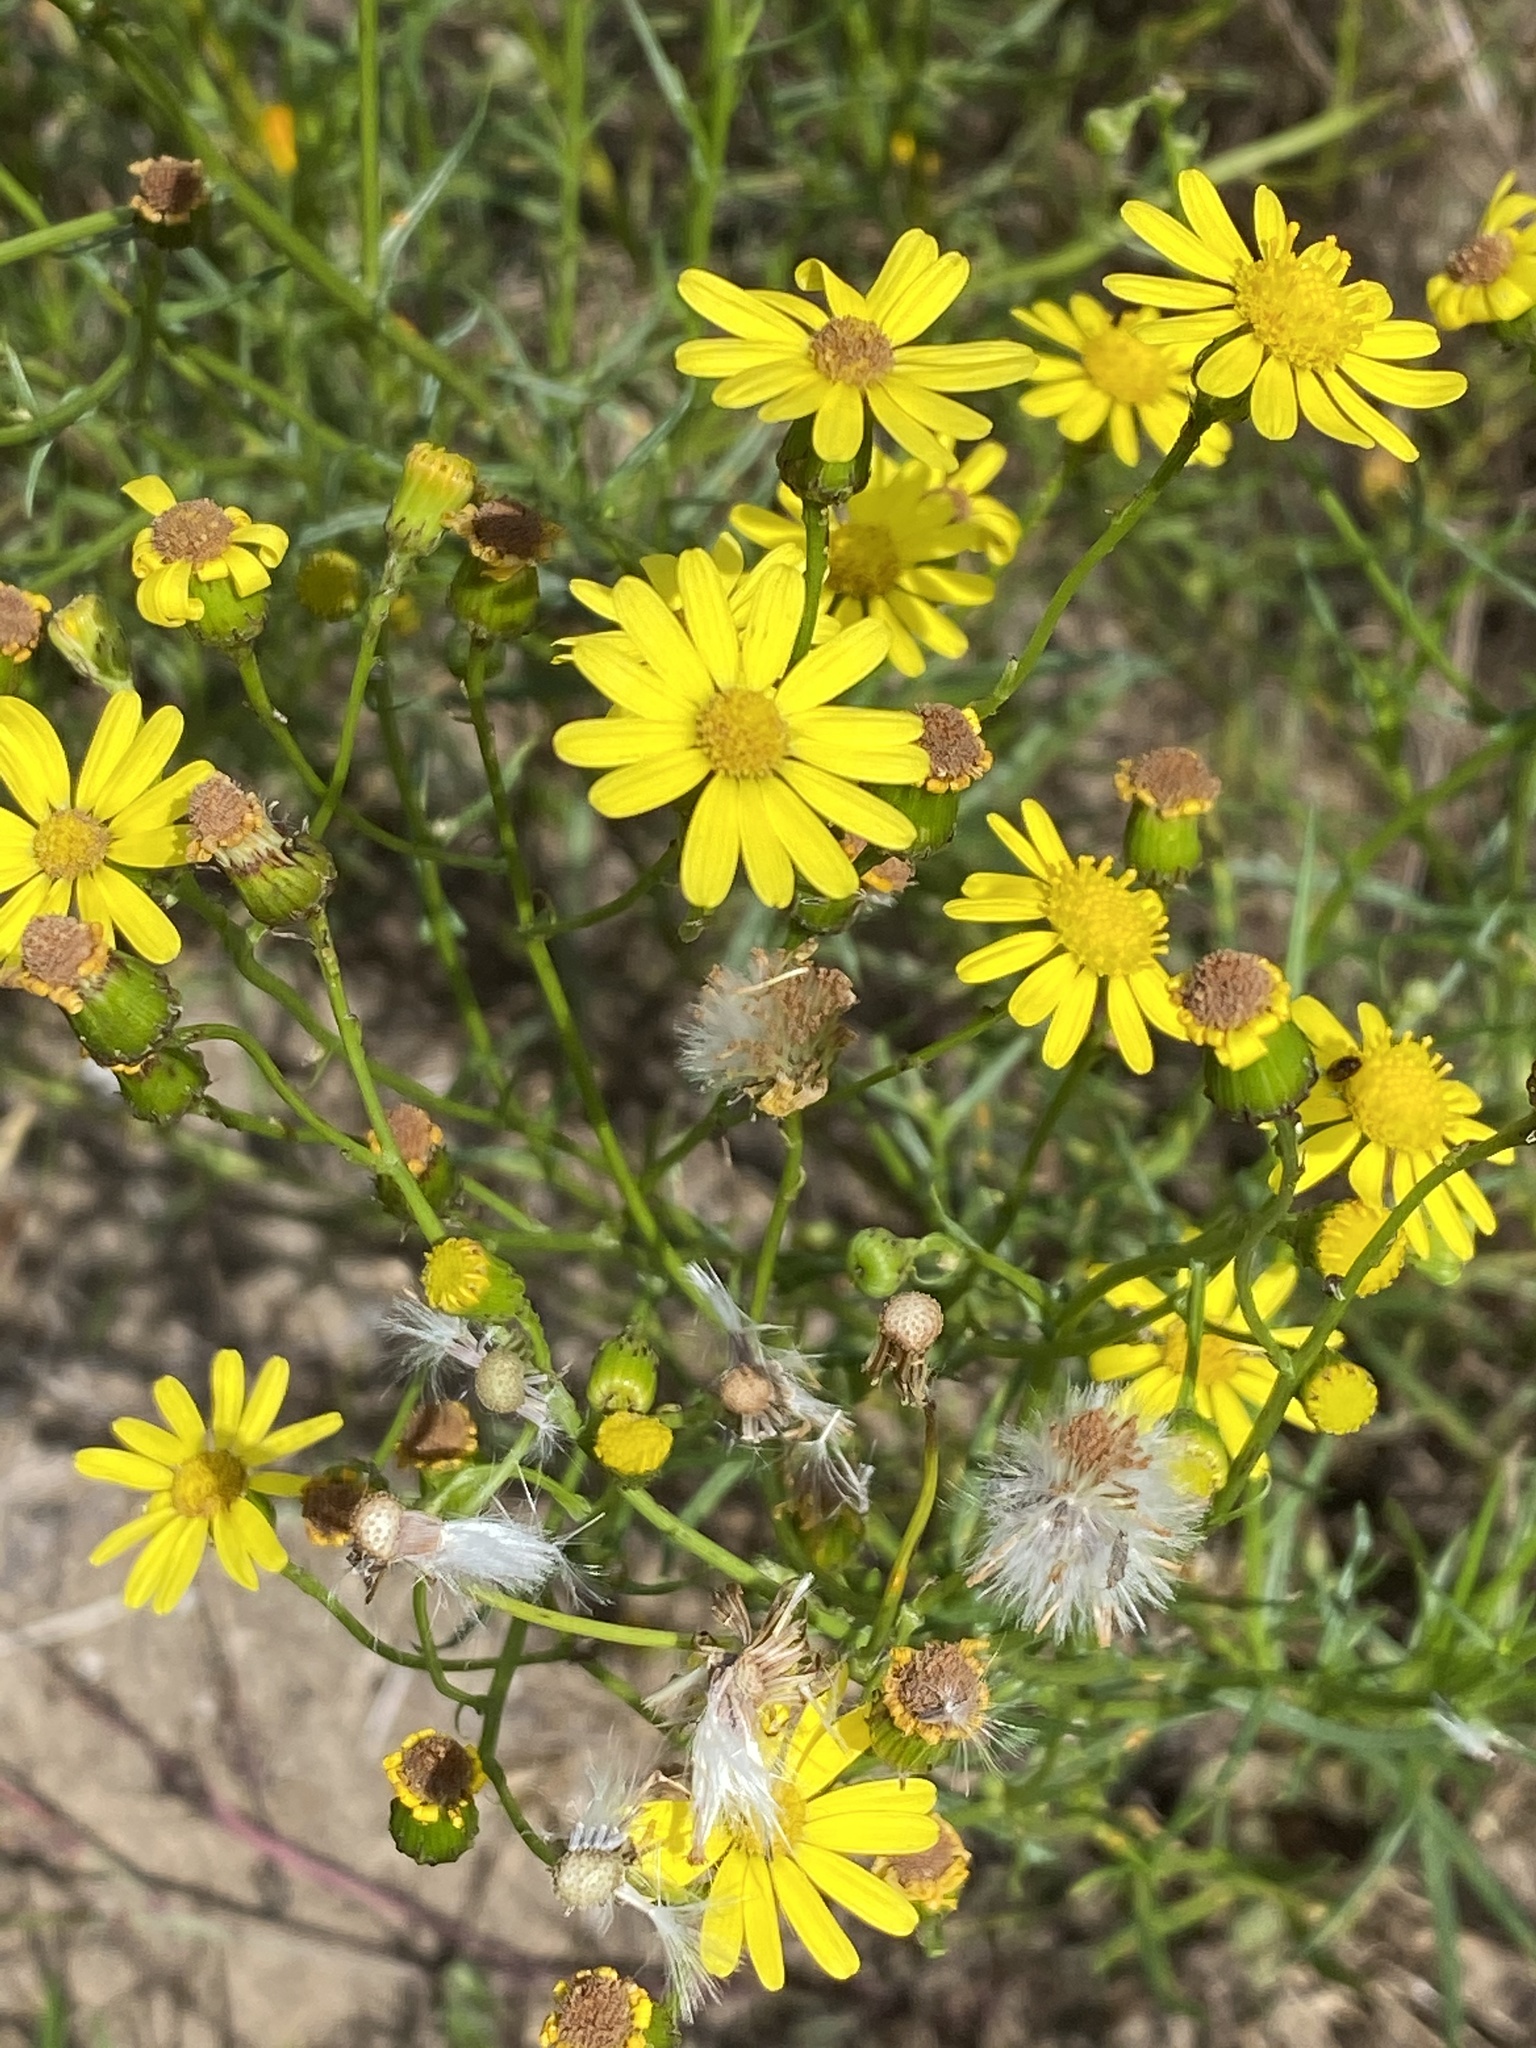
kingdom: Plantae
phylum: Tracheophyta
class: Magnoliopsida
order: Asterales
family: Asteraceae
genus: Senecio
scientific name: Senecio inaequidens
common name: Narrow-leaved ragwort
